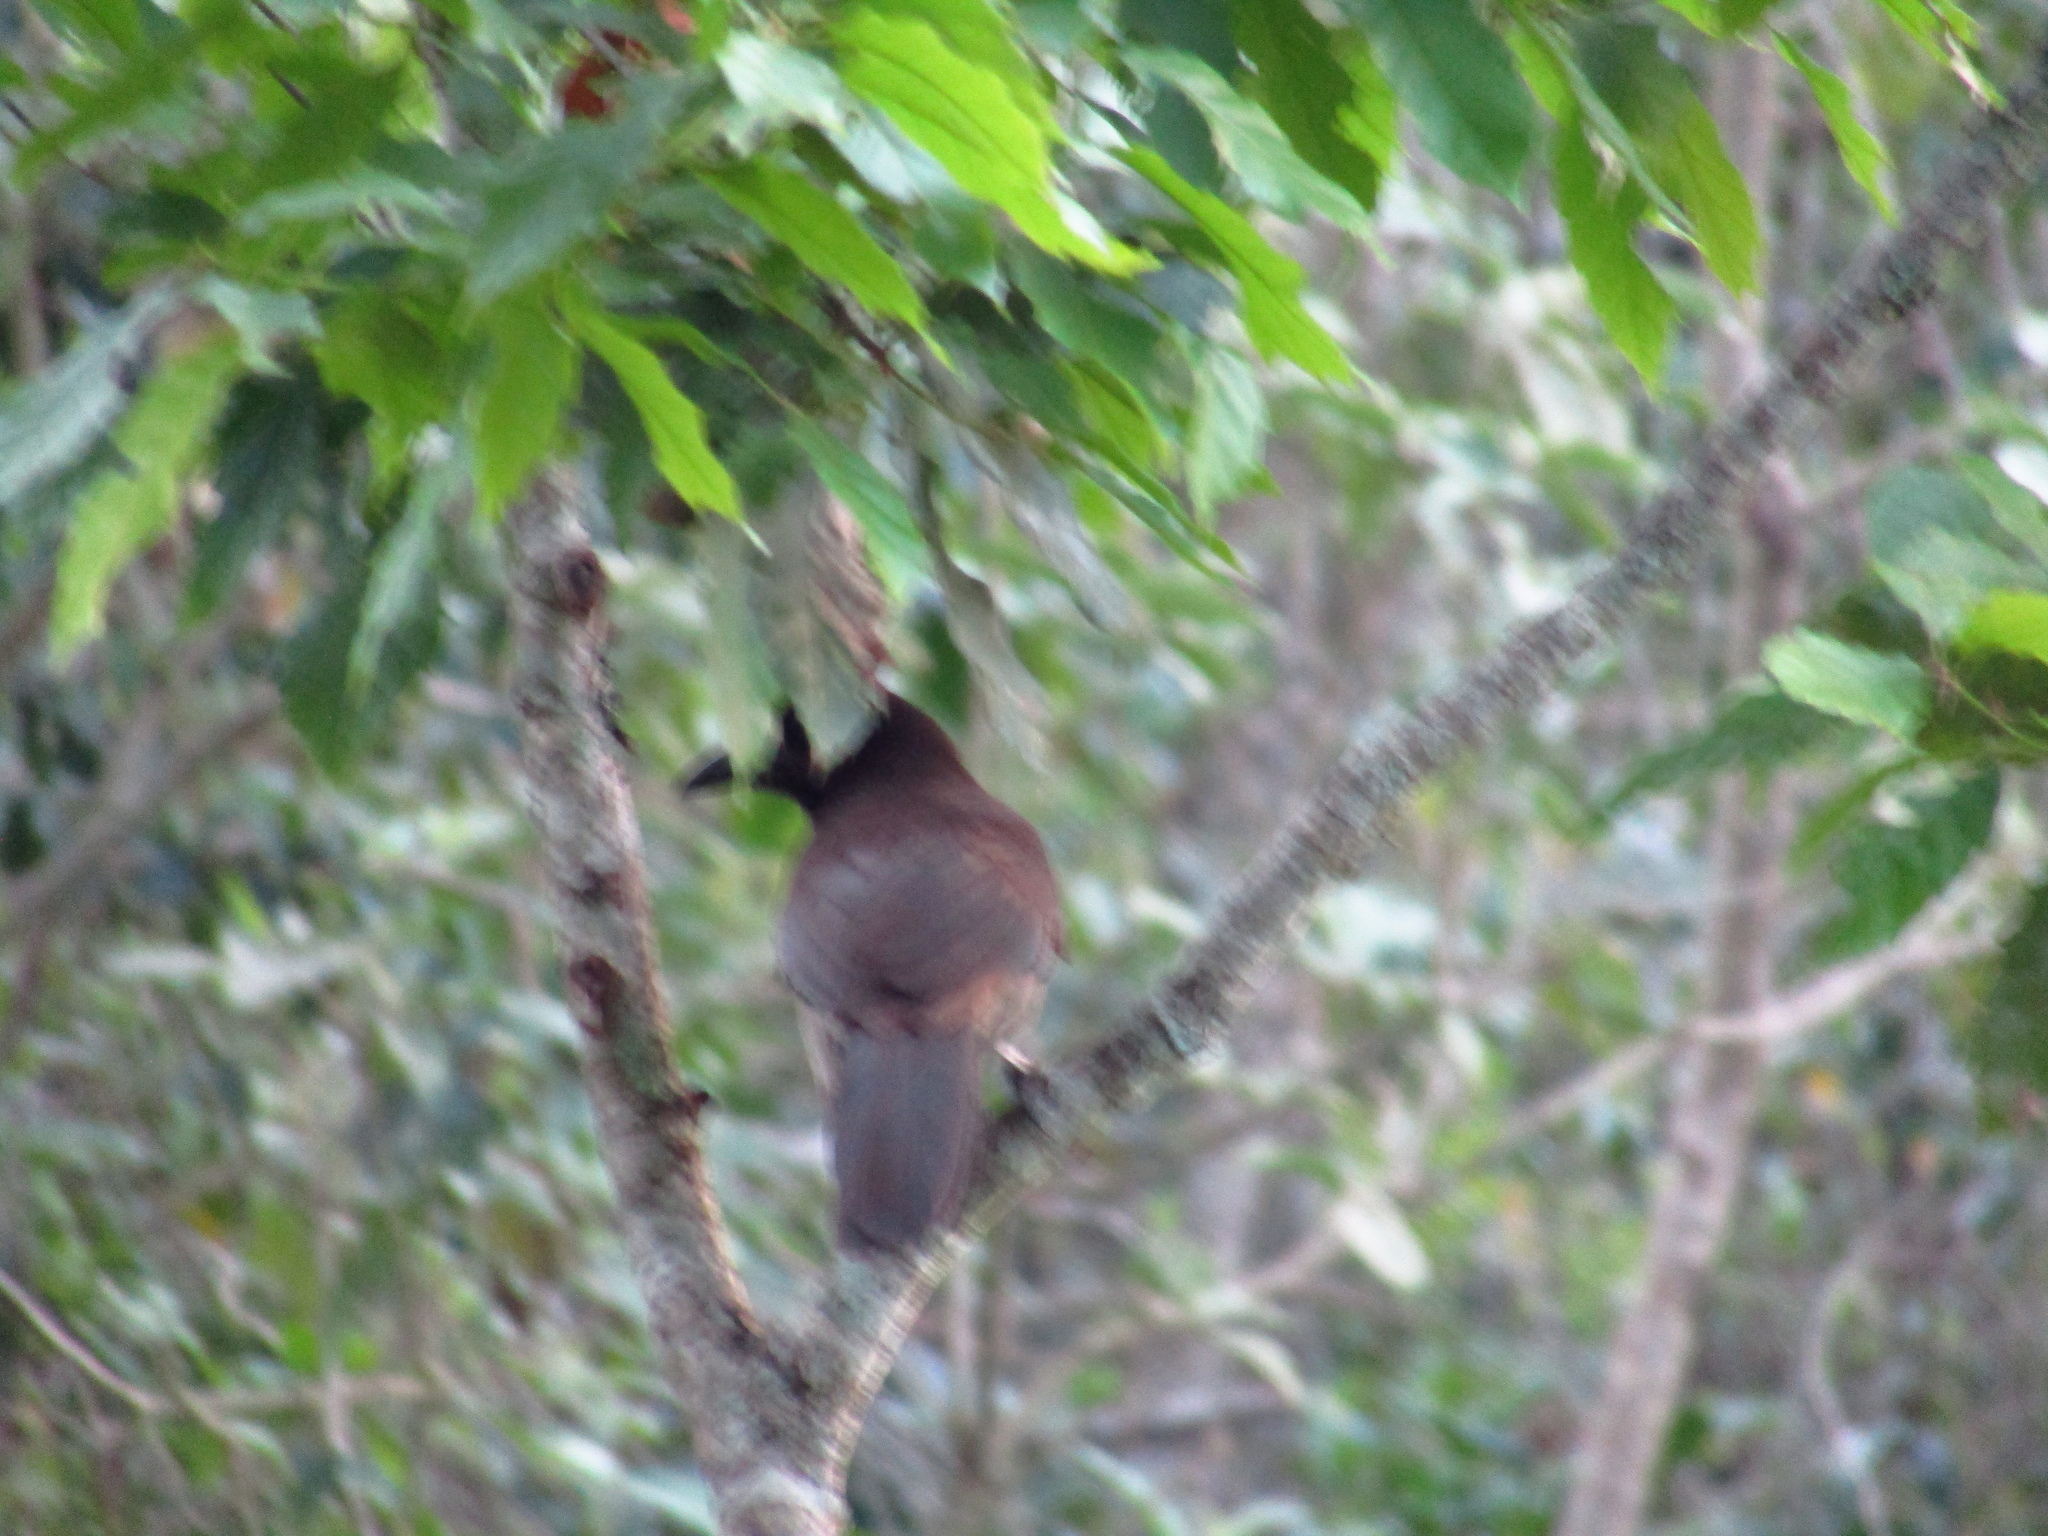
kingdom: Animalia
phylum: Chordata
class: Aves
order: Passeriformes
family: Corvidae
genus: Psilorhinus
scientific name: Psilorhinus morio
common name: Brown jay
